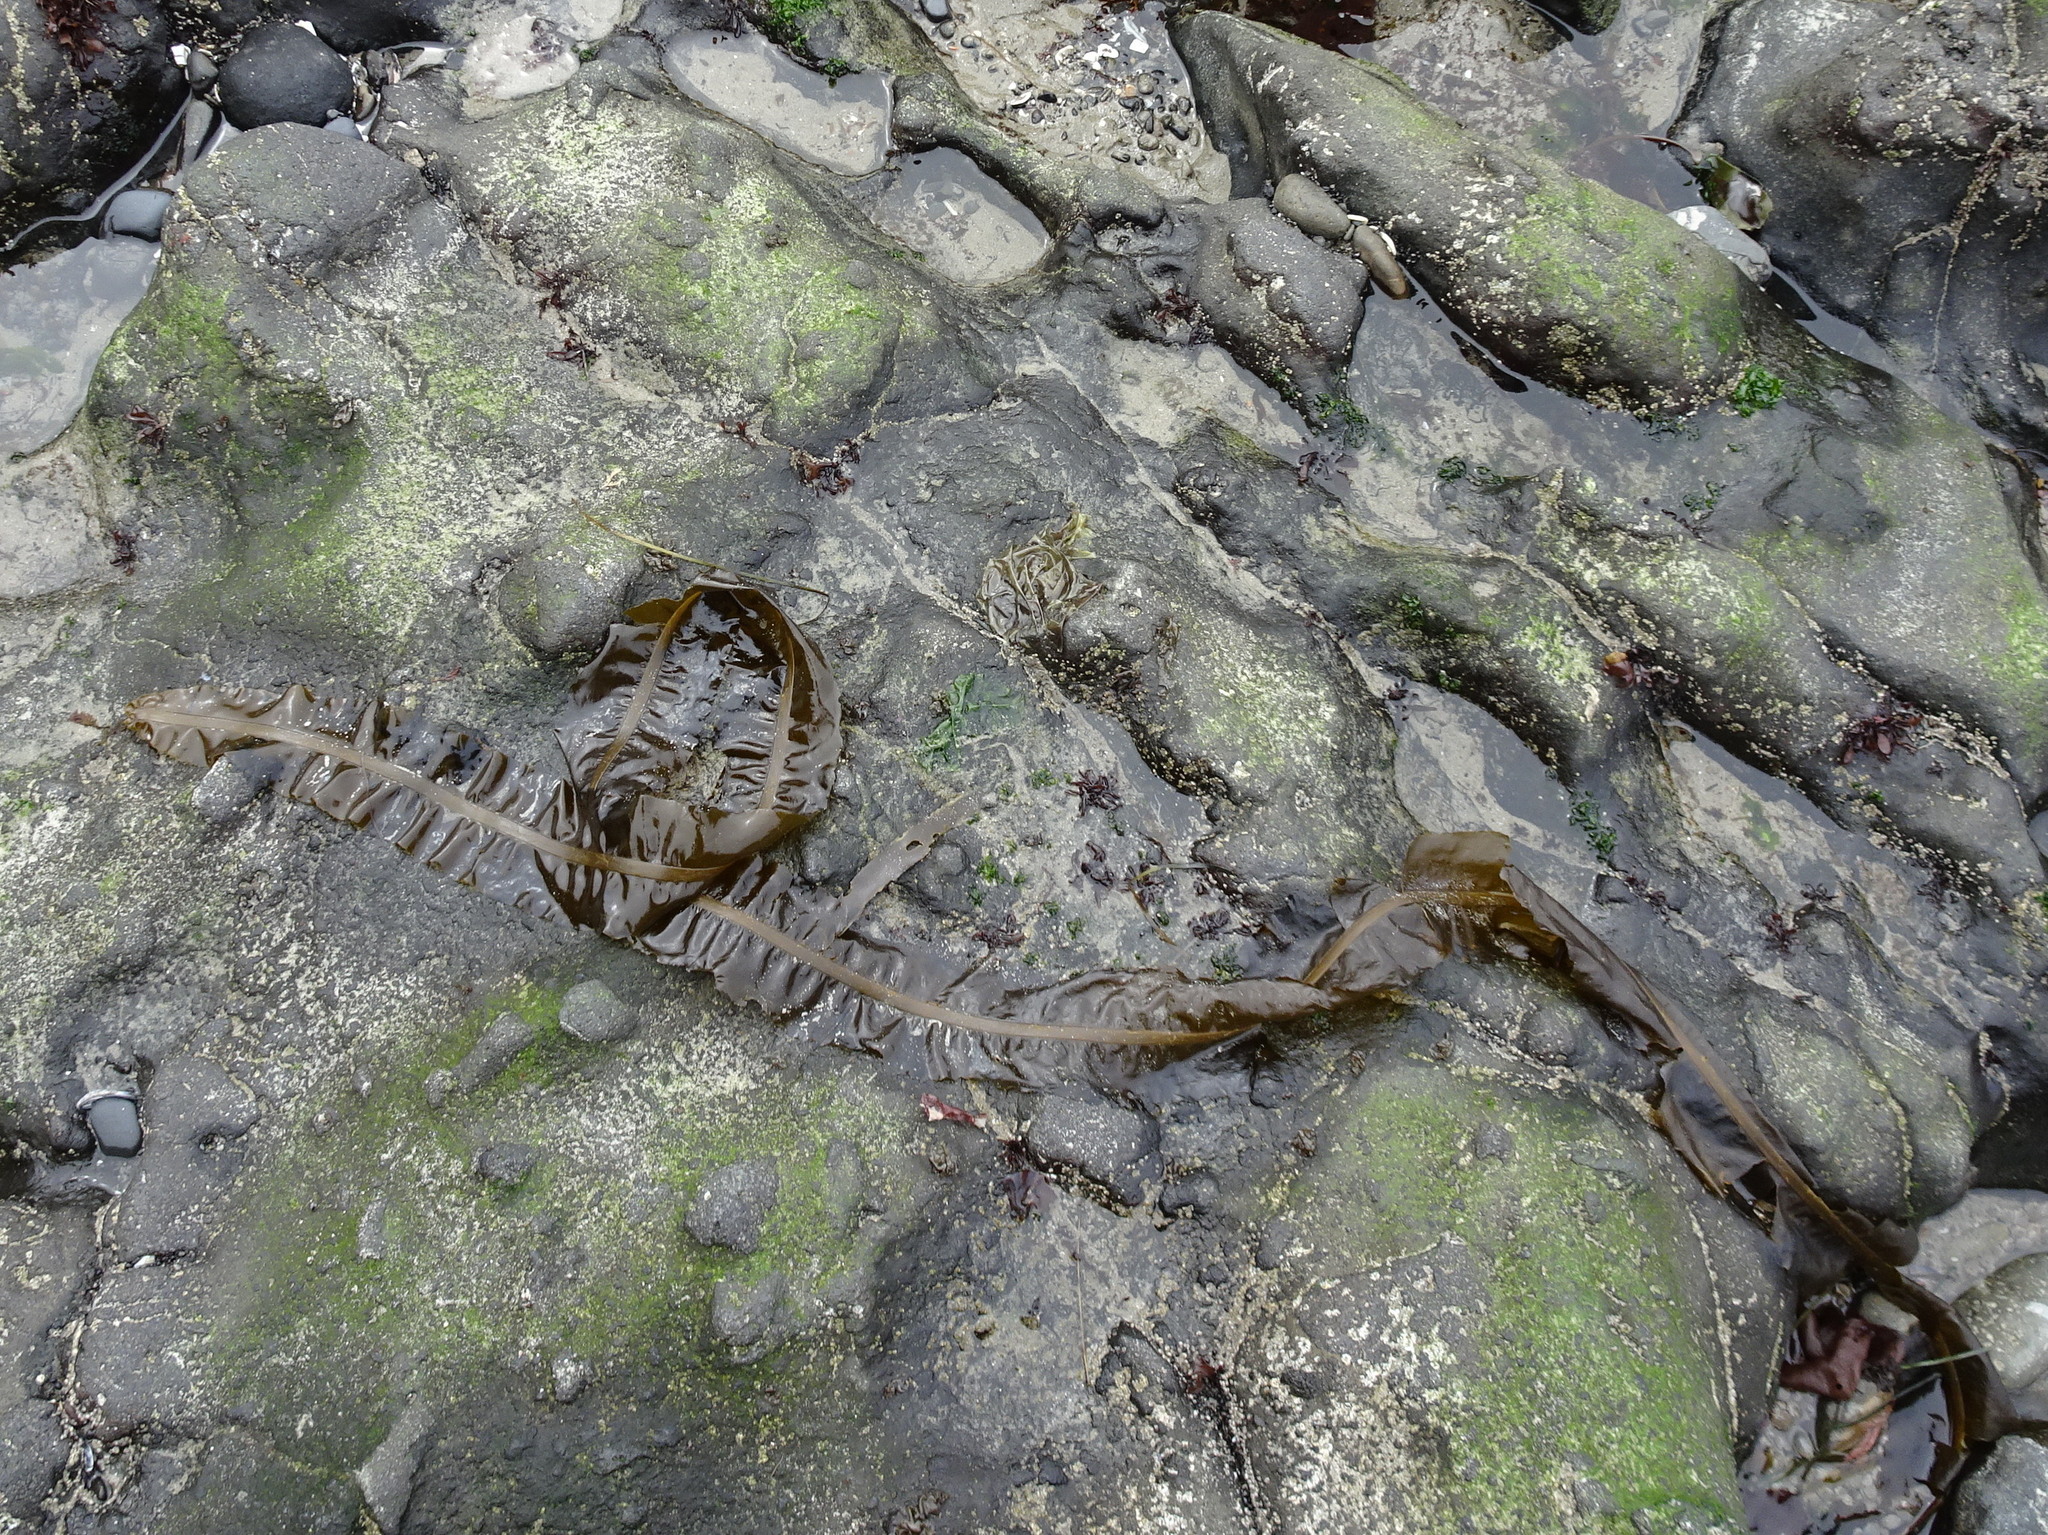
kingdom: Chromista
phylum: Ochrophyta
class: Phaeophyceae
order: Laminariales
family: Alariaceae
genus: Alaria
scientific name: Alaria marginata
